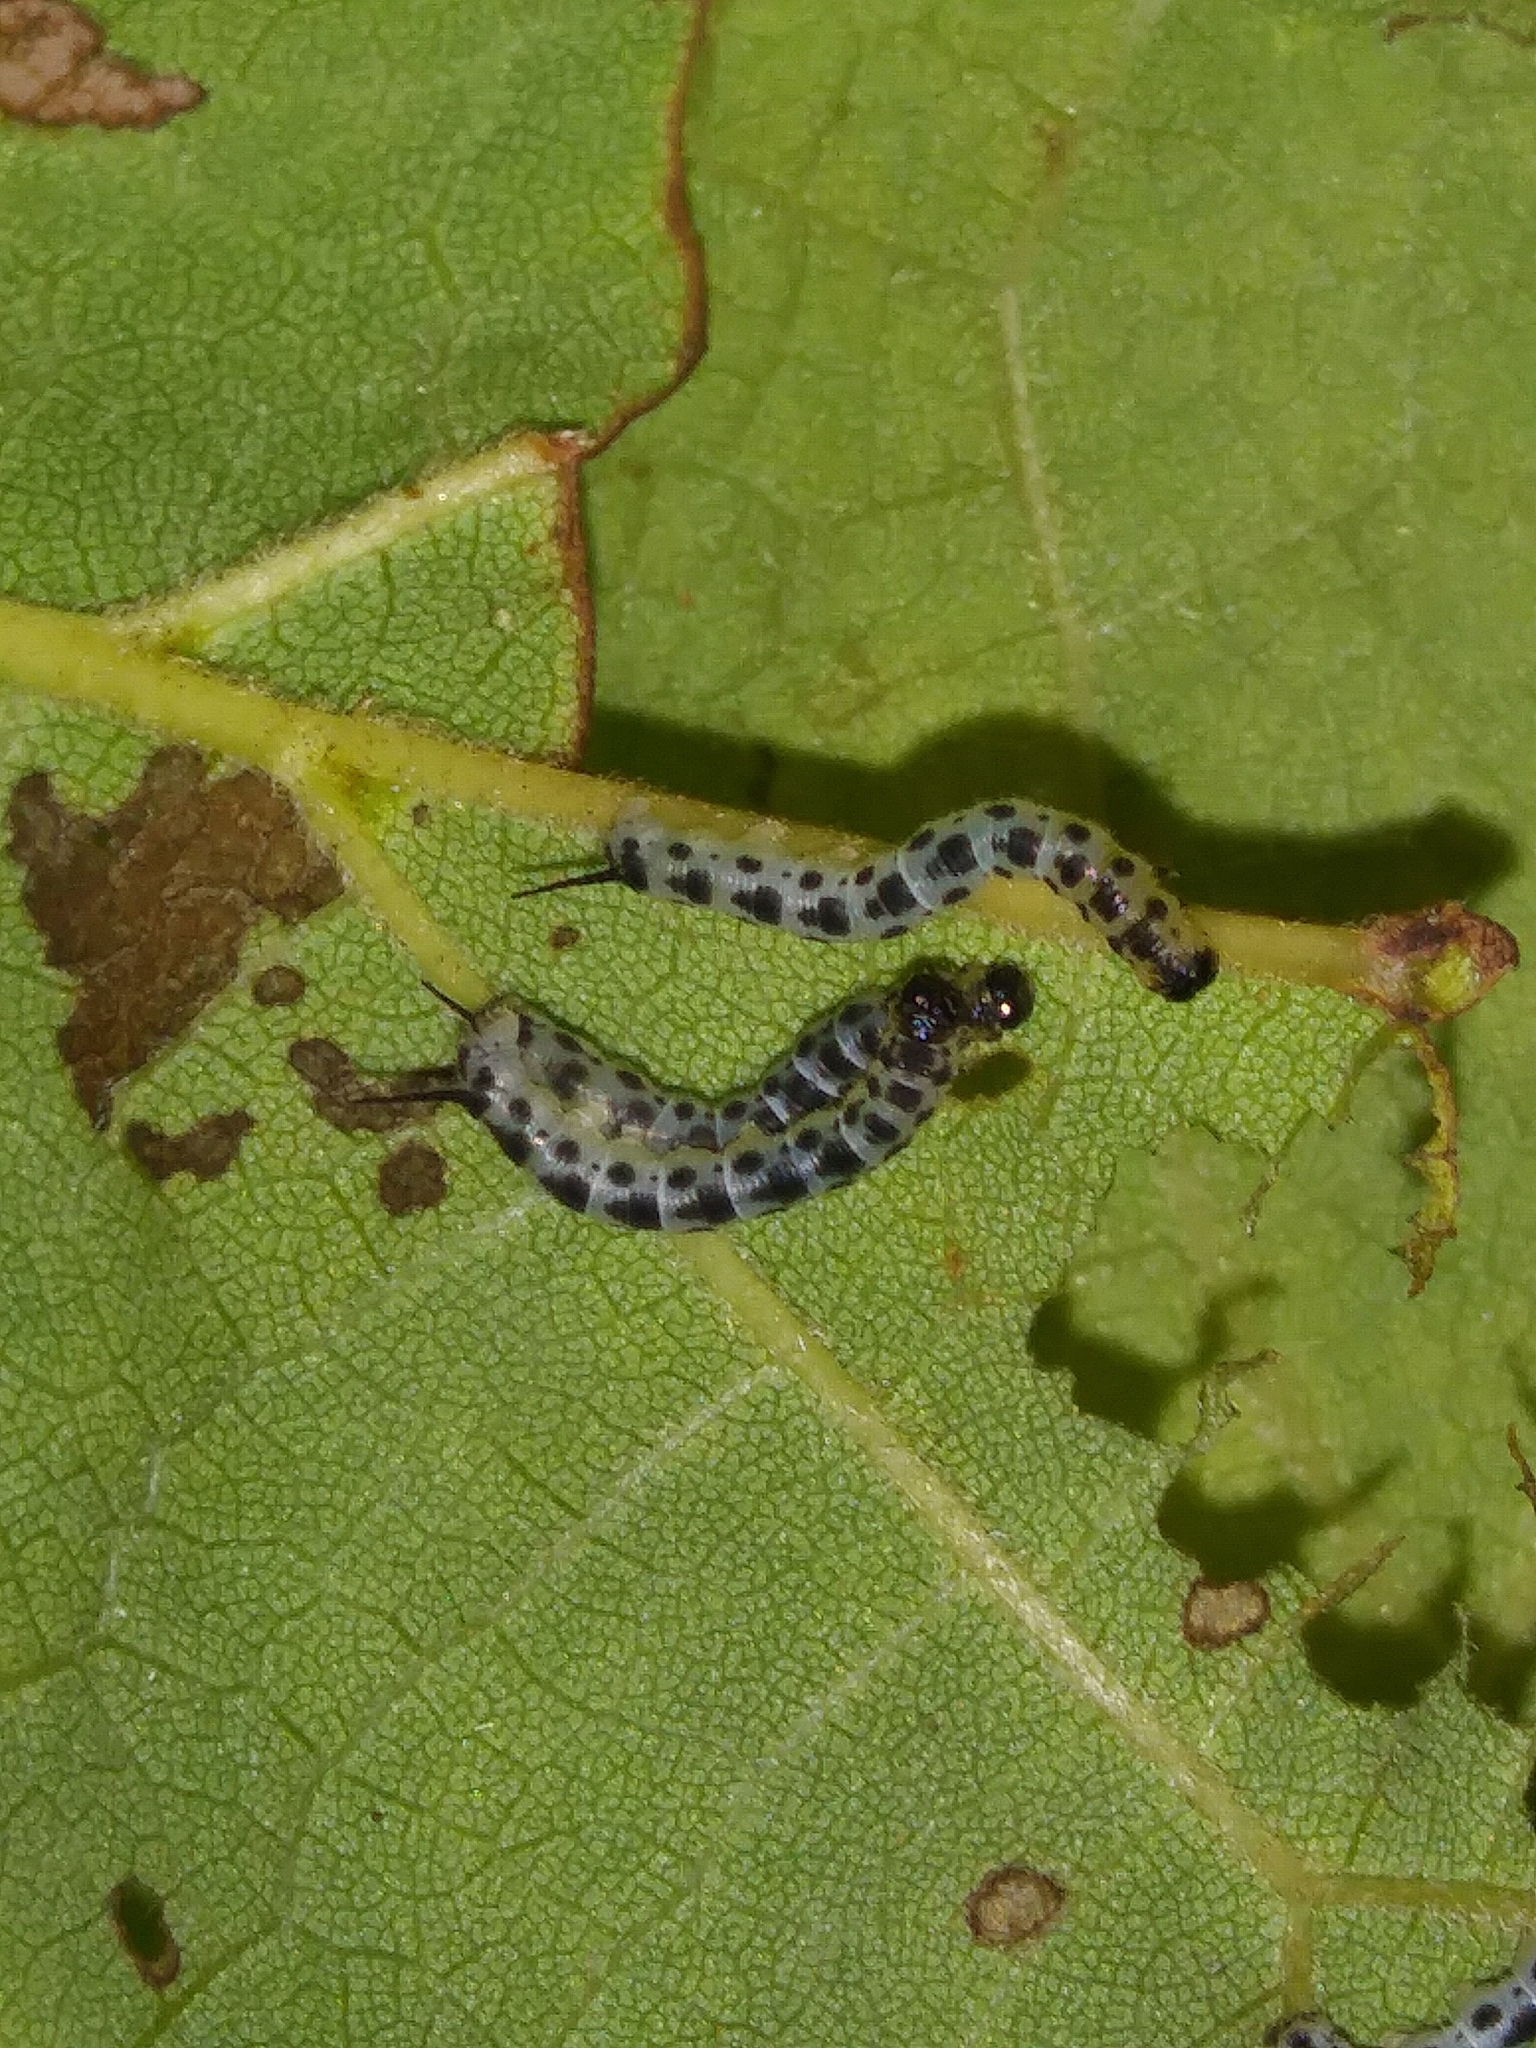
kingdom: Animalia
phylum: Arthropoda
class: Insecta
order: Lepidoptera
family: Sphingidae
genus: Ceratomia
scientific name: Ceratomia catalpae
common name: Catalpa hornworm
